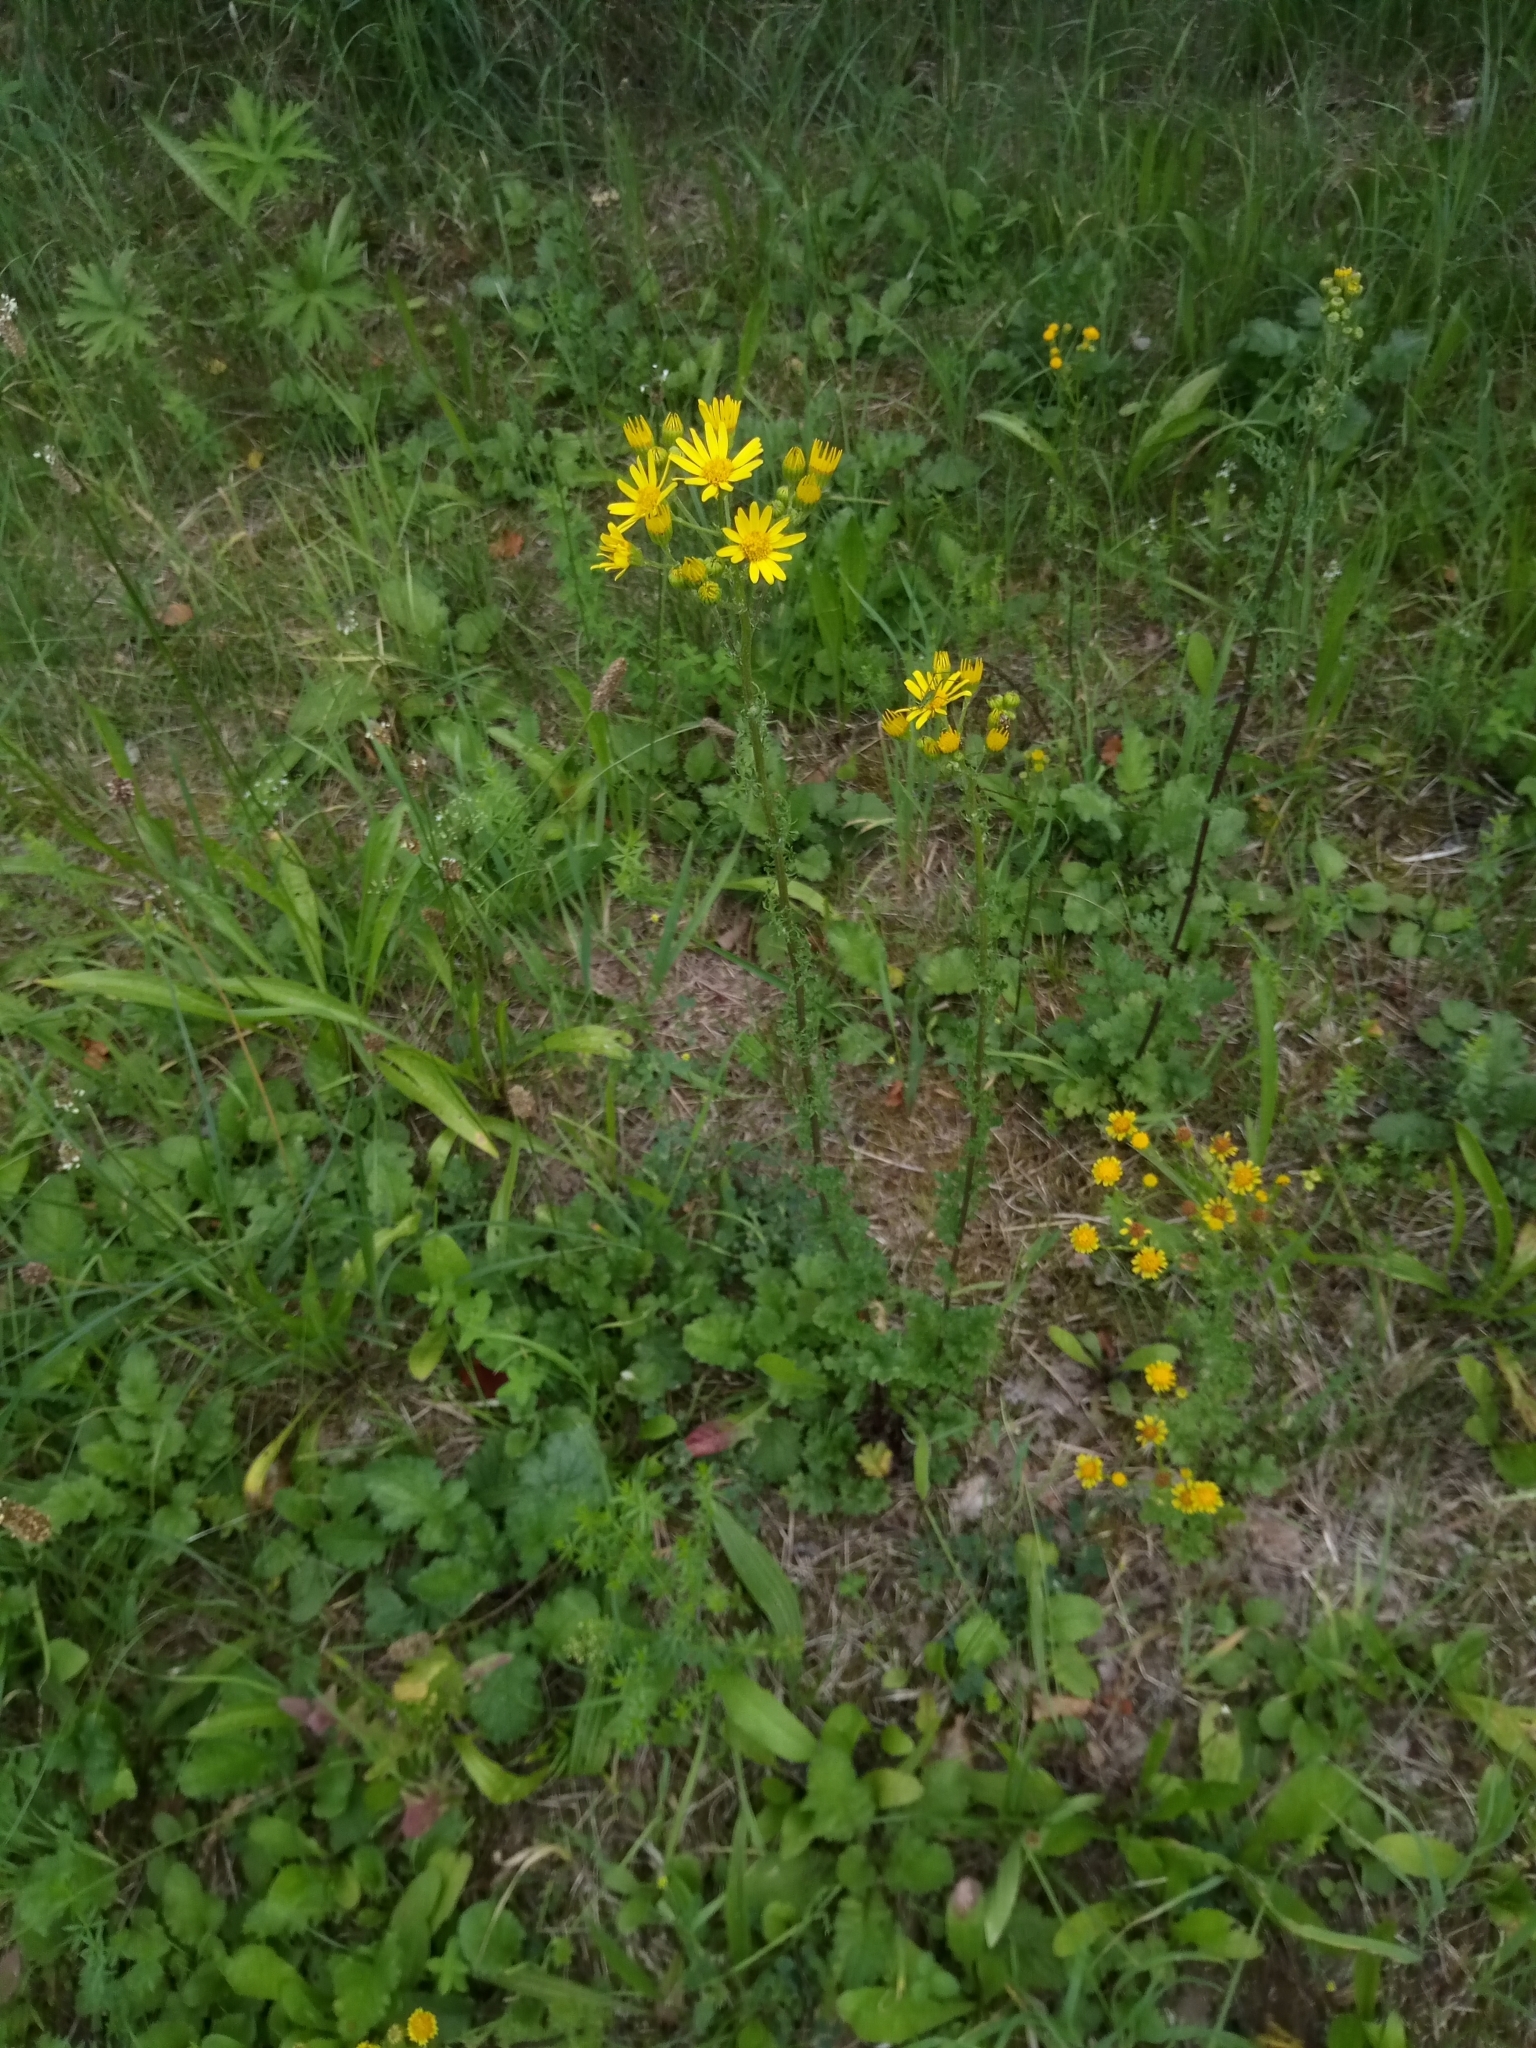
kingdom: Plantae
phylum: Tracheophyta
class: Magnoliopsida
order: Asterales
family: Asteraceae
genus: Jacobaea
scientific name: Jacobaea vulgaris
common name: Stinking willie
